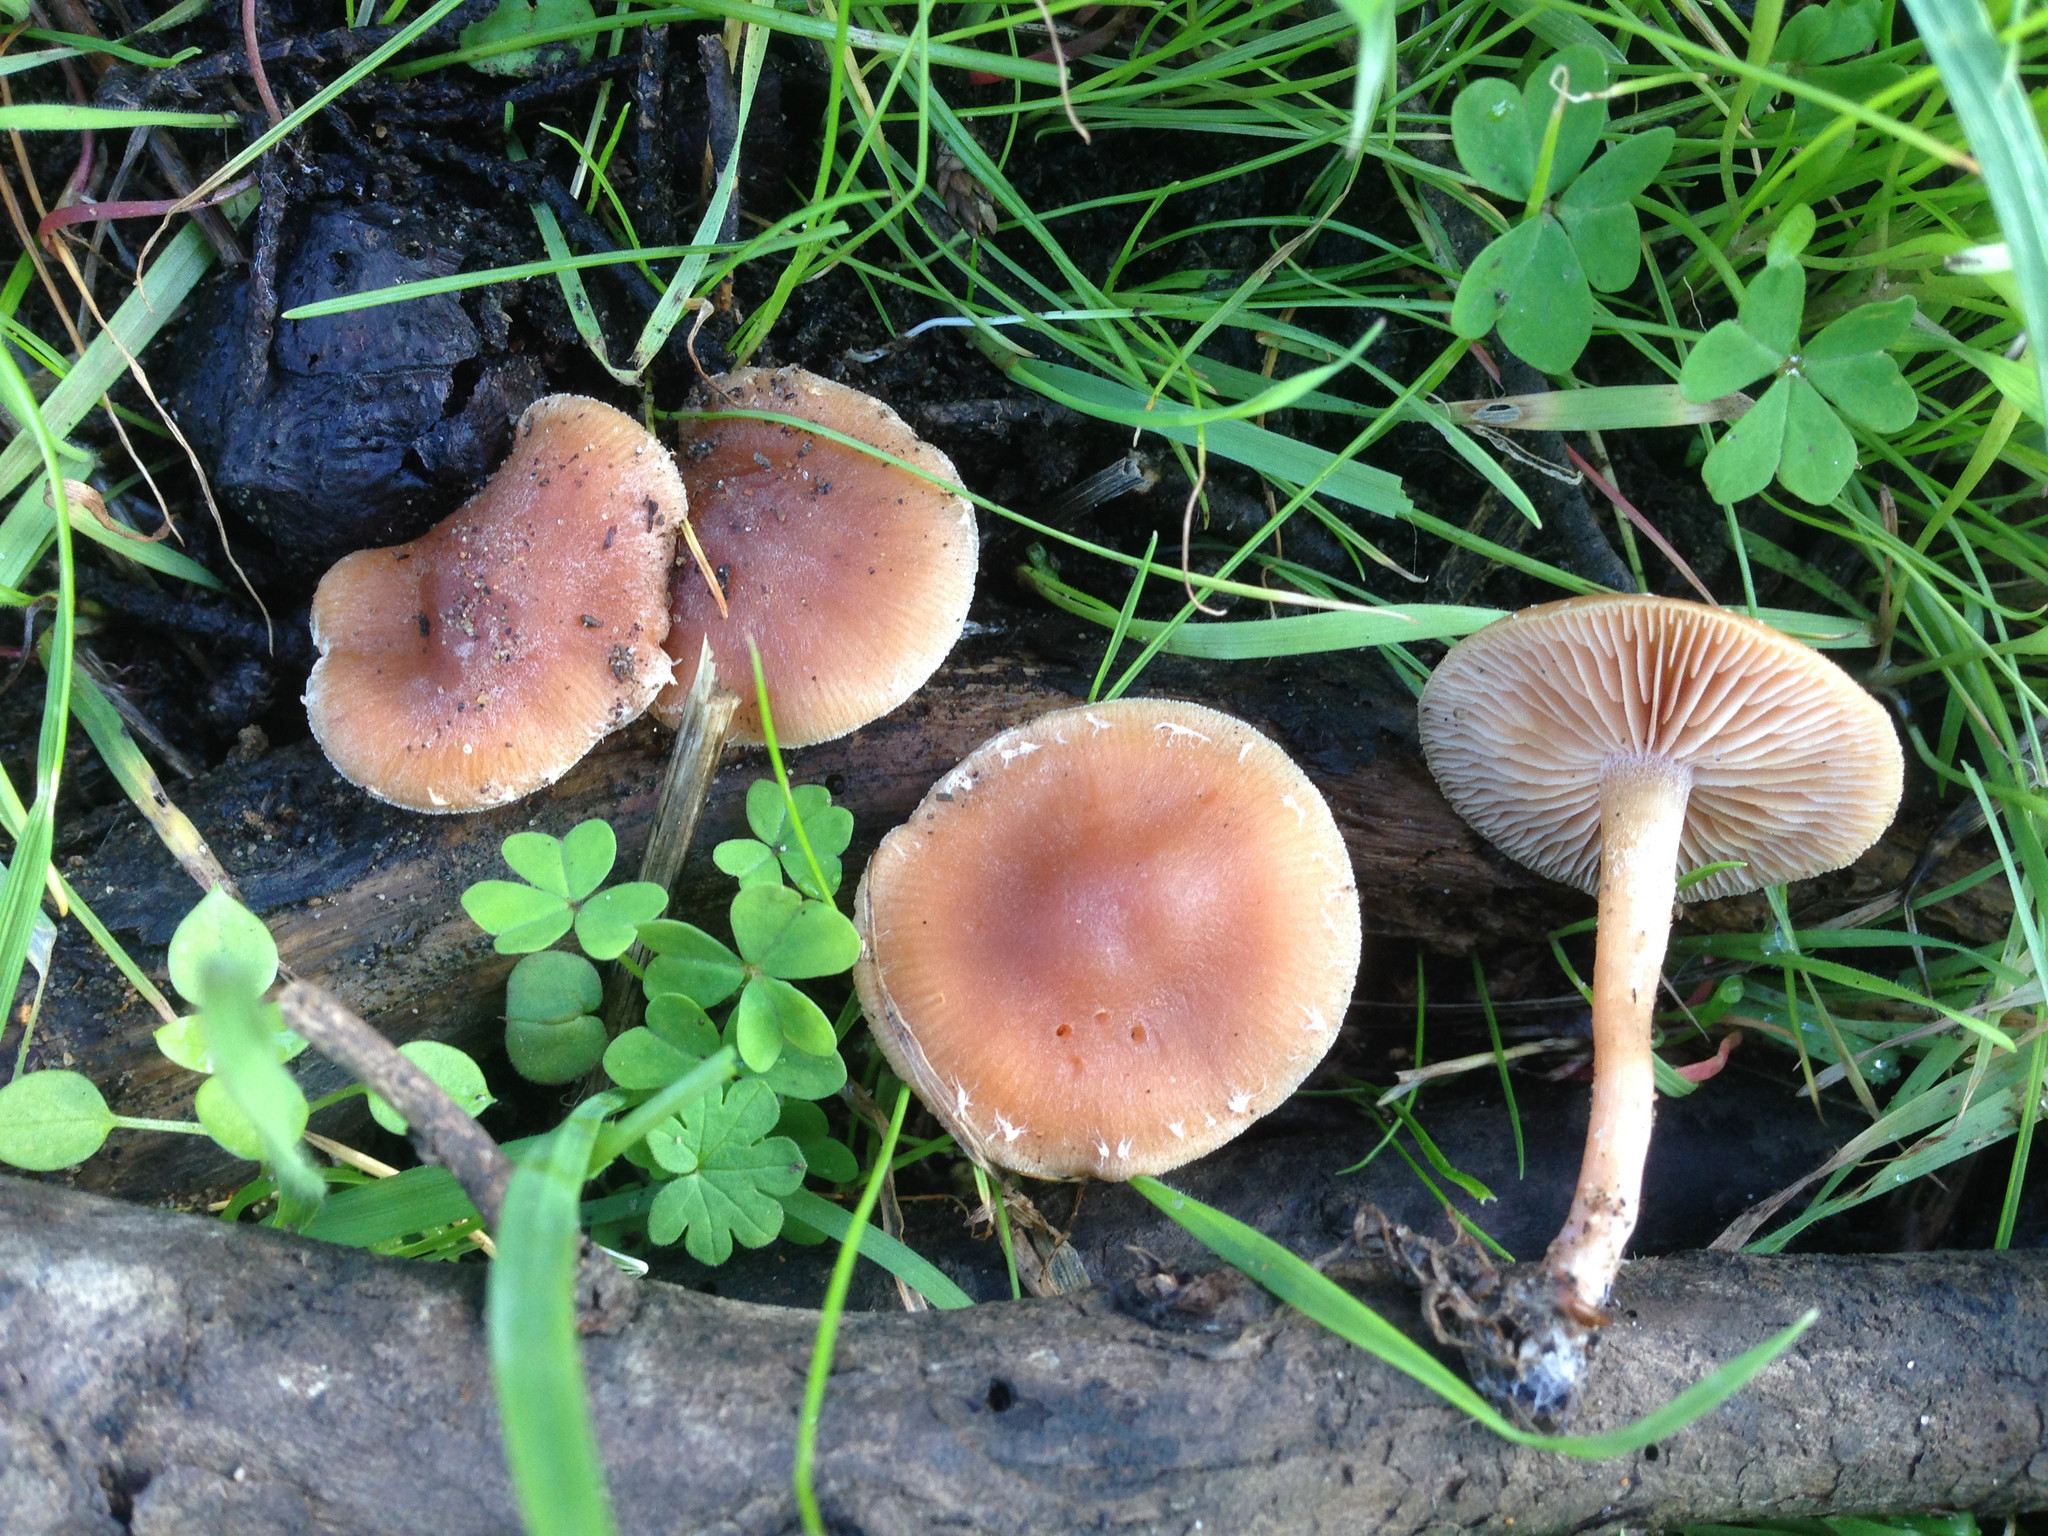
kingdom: Fungi
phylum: Basidiomycota
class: Agaricomycetes
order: Agaricales
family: Tubariaceae
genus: Tubaria
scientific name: Tubaria furfuracea
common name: Scurfy twiglet
